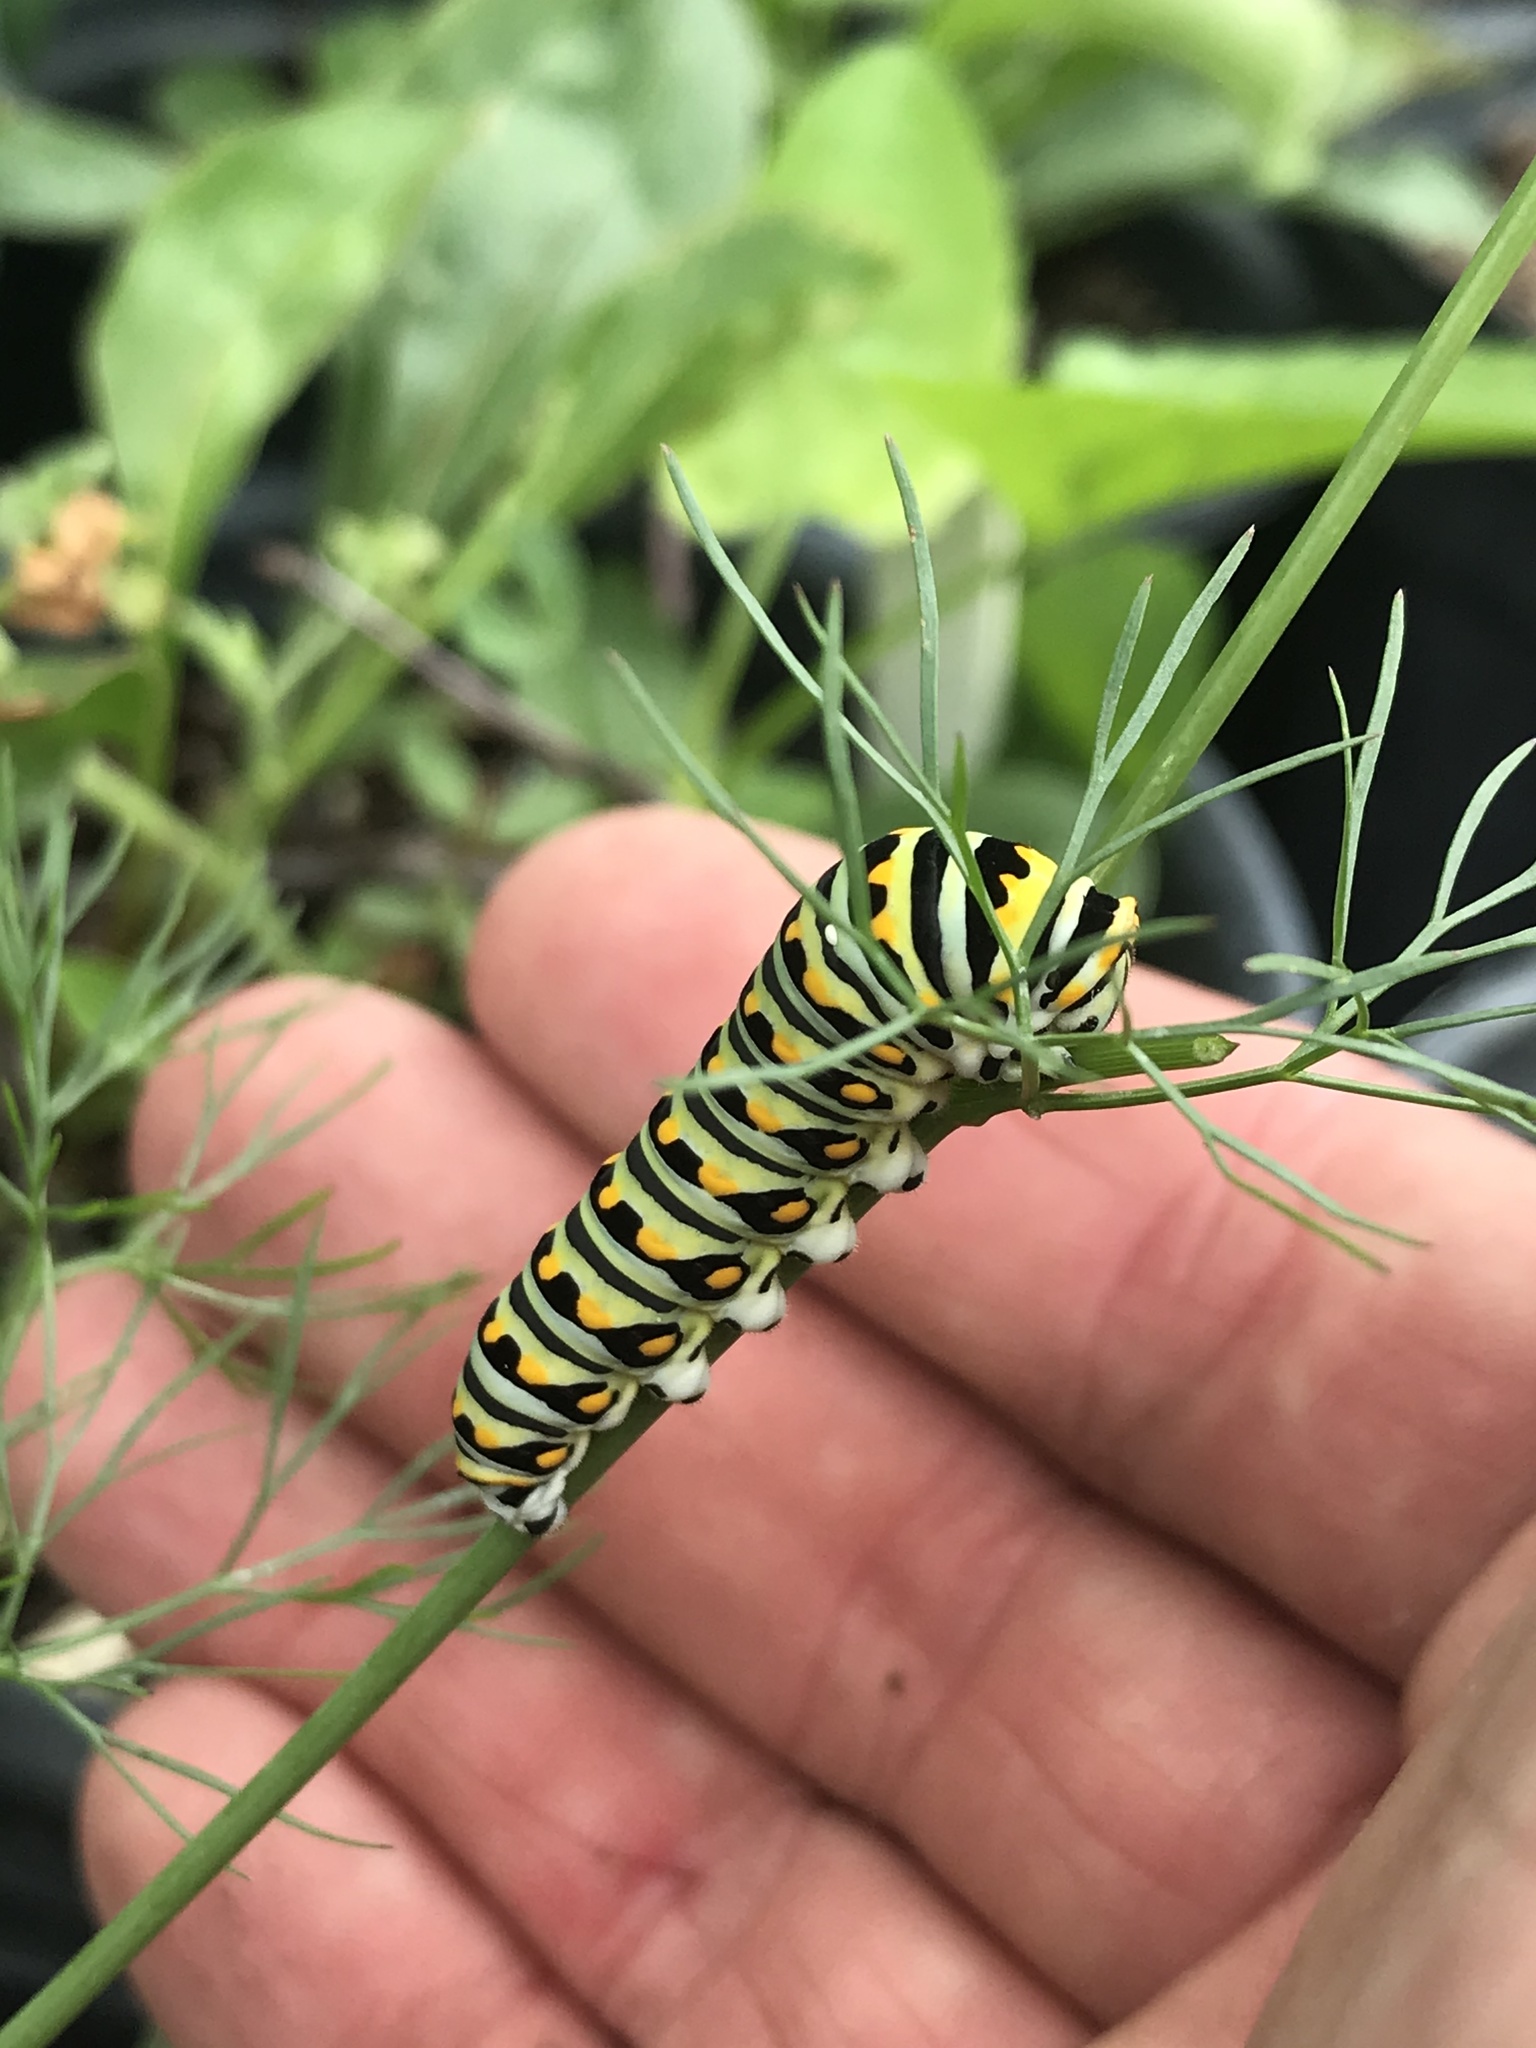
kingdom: Animalia
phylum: Arthropoda
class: Insecta
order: Lepidoptera
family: Papilionidae
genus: Papilio
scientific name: Papilio polyxenes
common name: Black swallowtail
